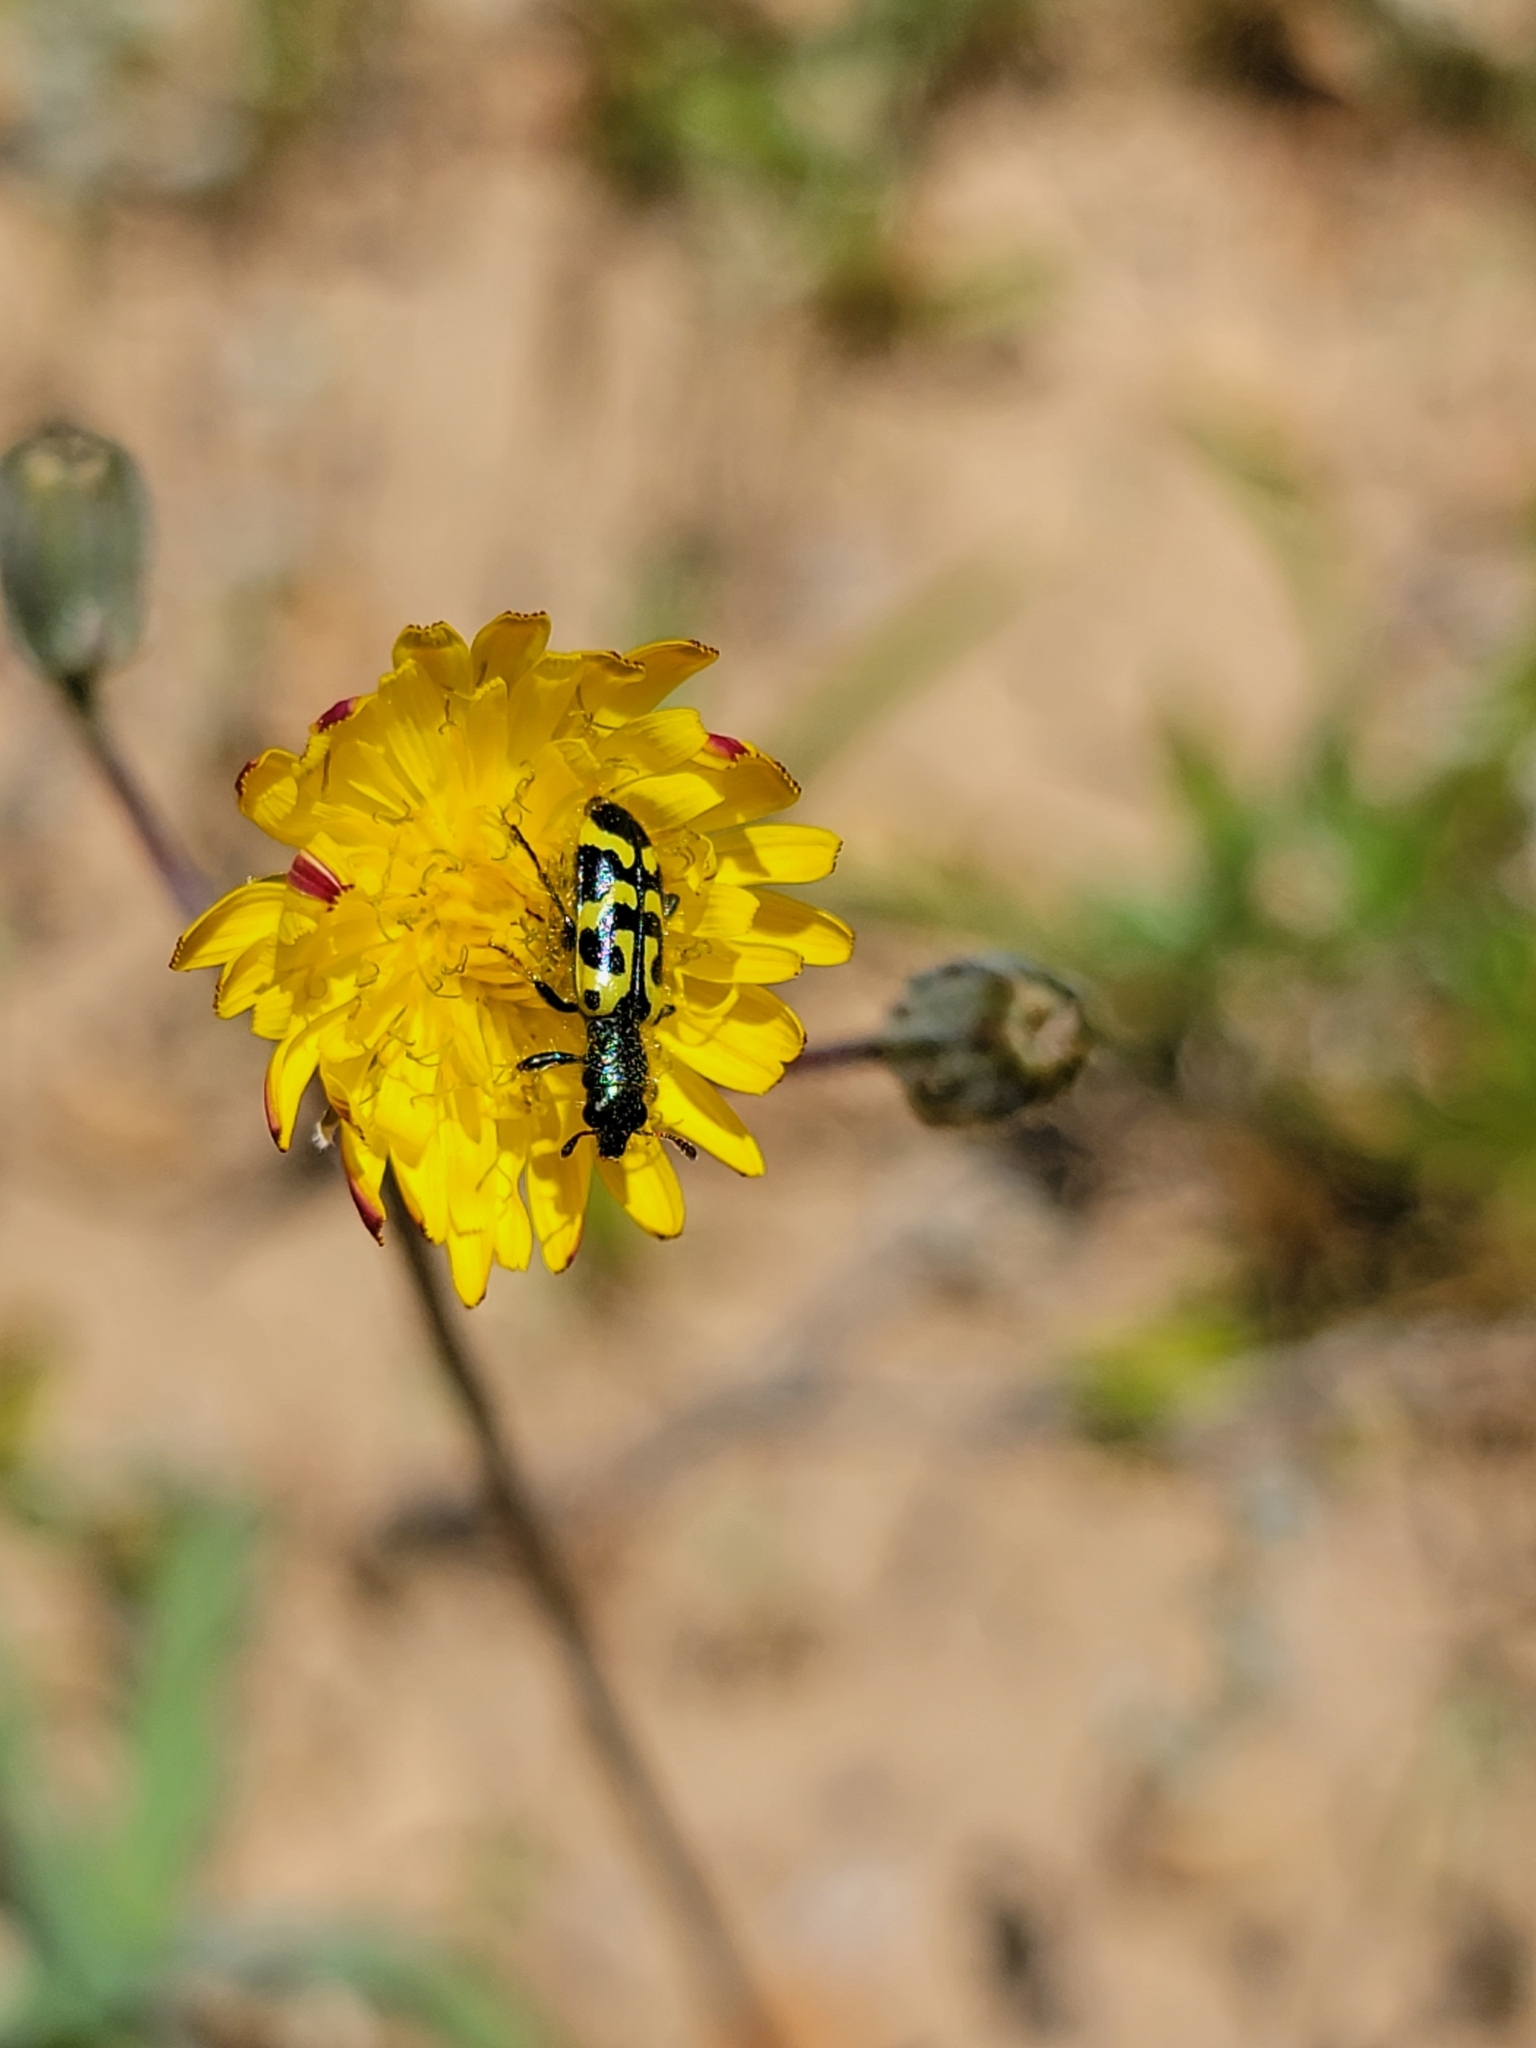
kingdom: Animalia
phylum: Arthropoda
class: Insecta
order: Coleoptera
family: Cleridae
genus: Trichodes
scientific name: Trichodes ornatus
